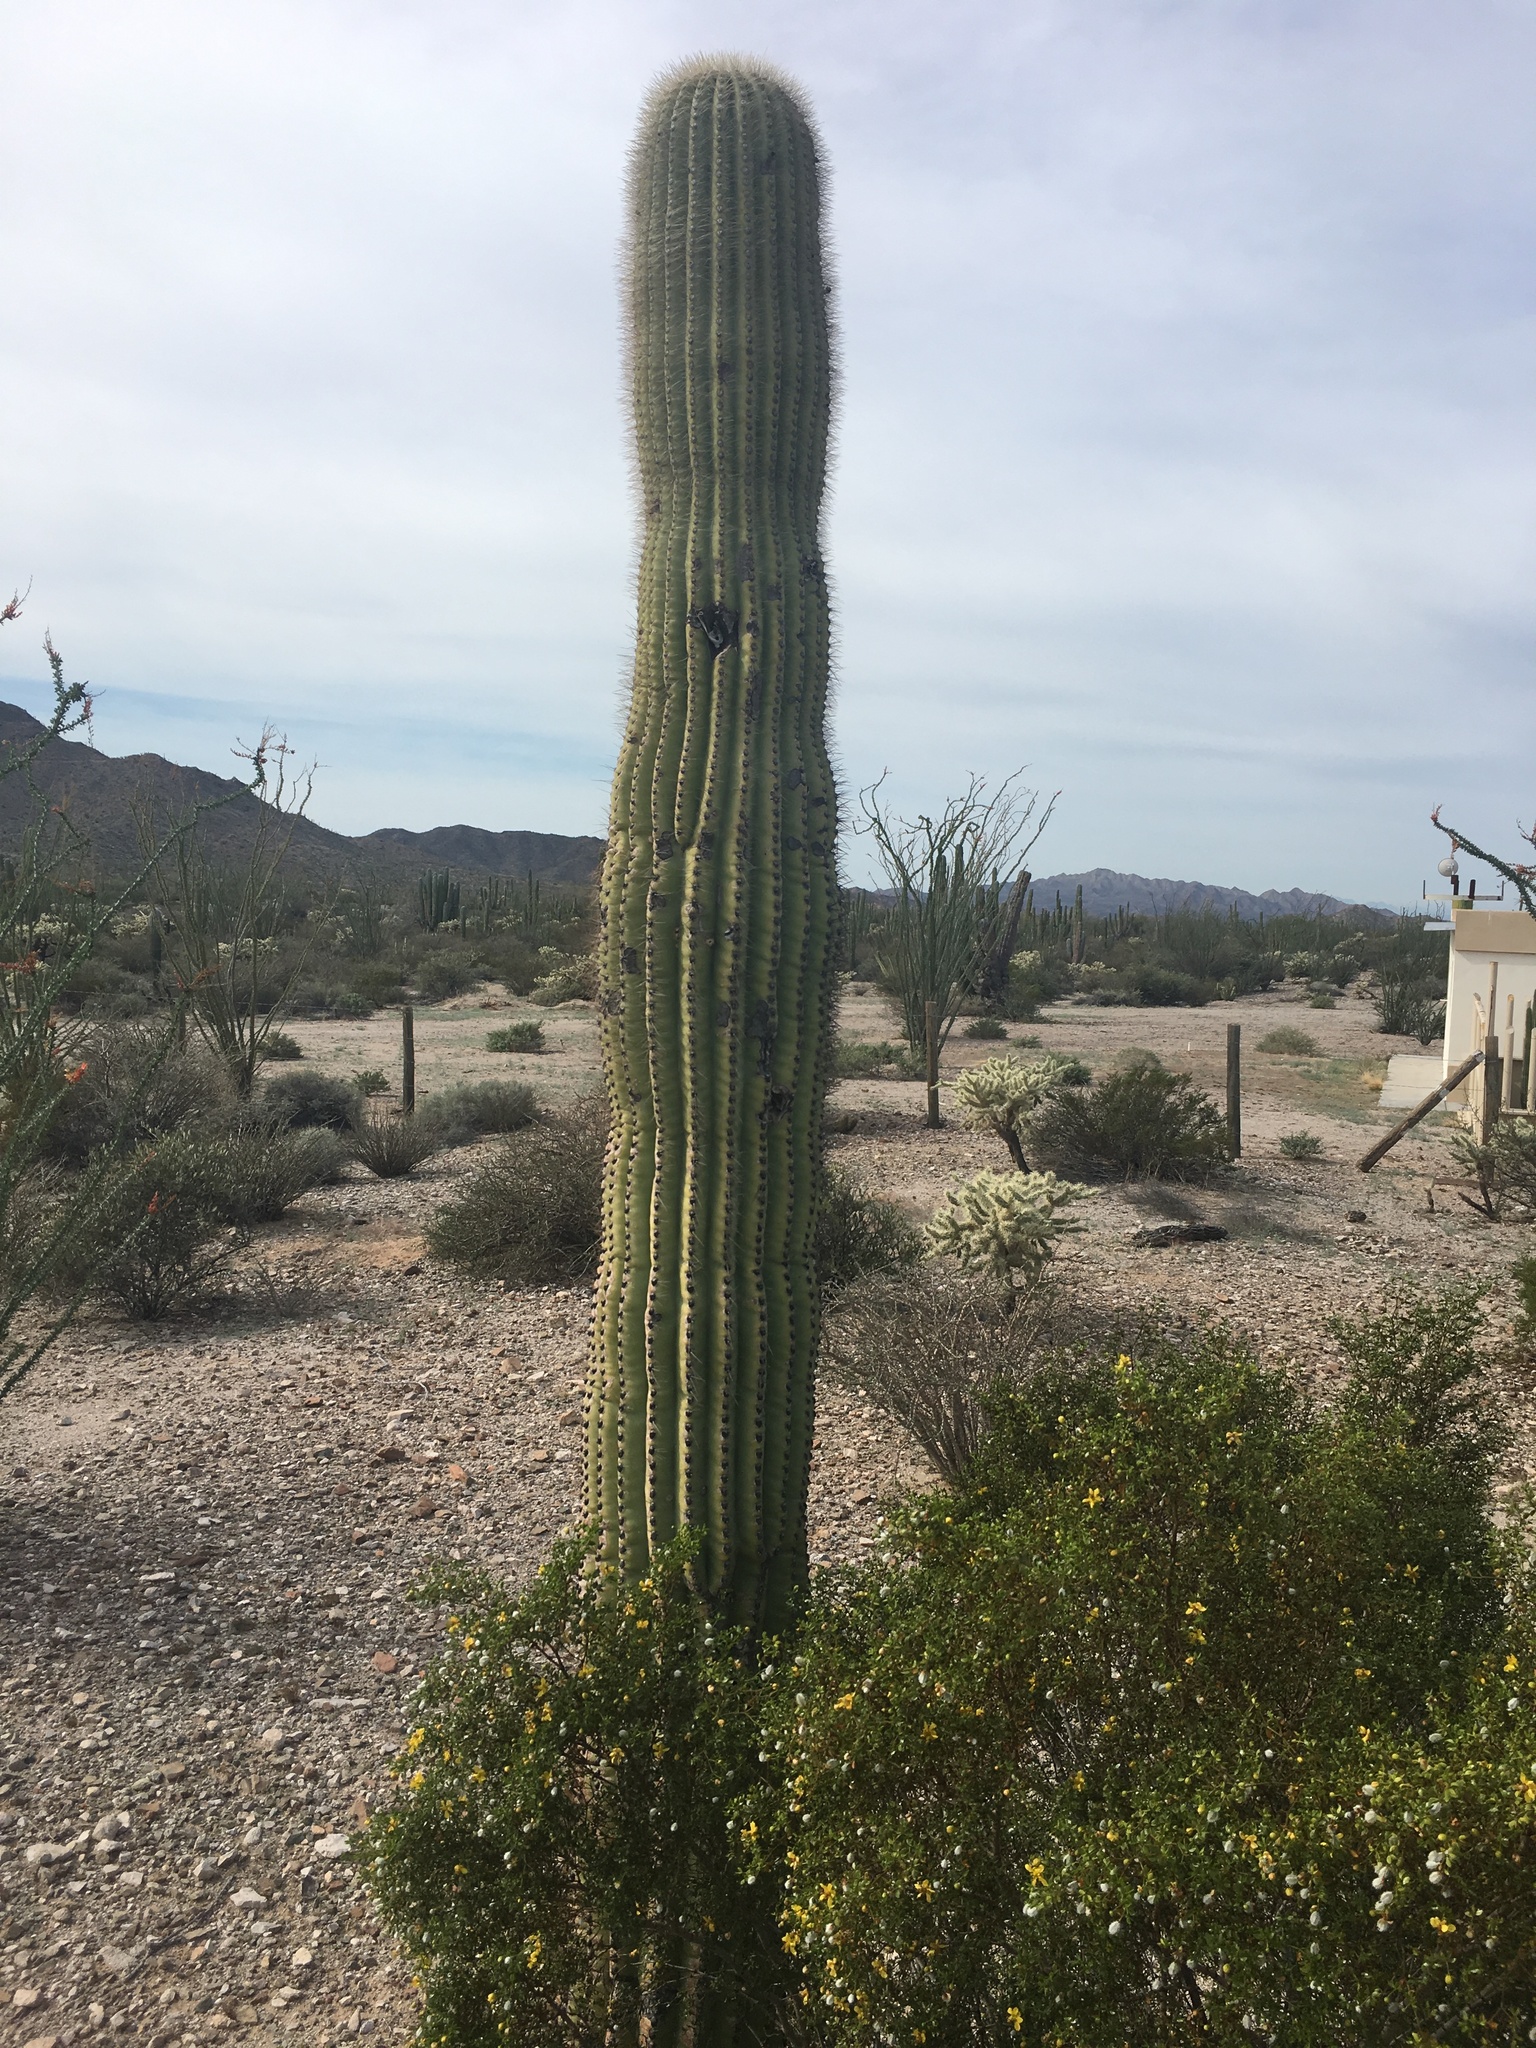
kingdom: Plantae
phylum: Tracheophyta
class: Magnoliopsida
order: Caryophyllales
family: Cactaceae
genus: Carnegiea
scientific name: Carnegiea gigantea
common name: Saguaro
